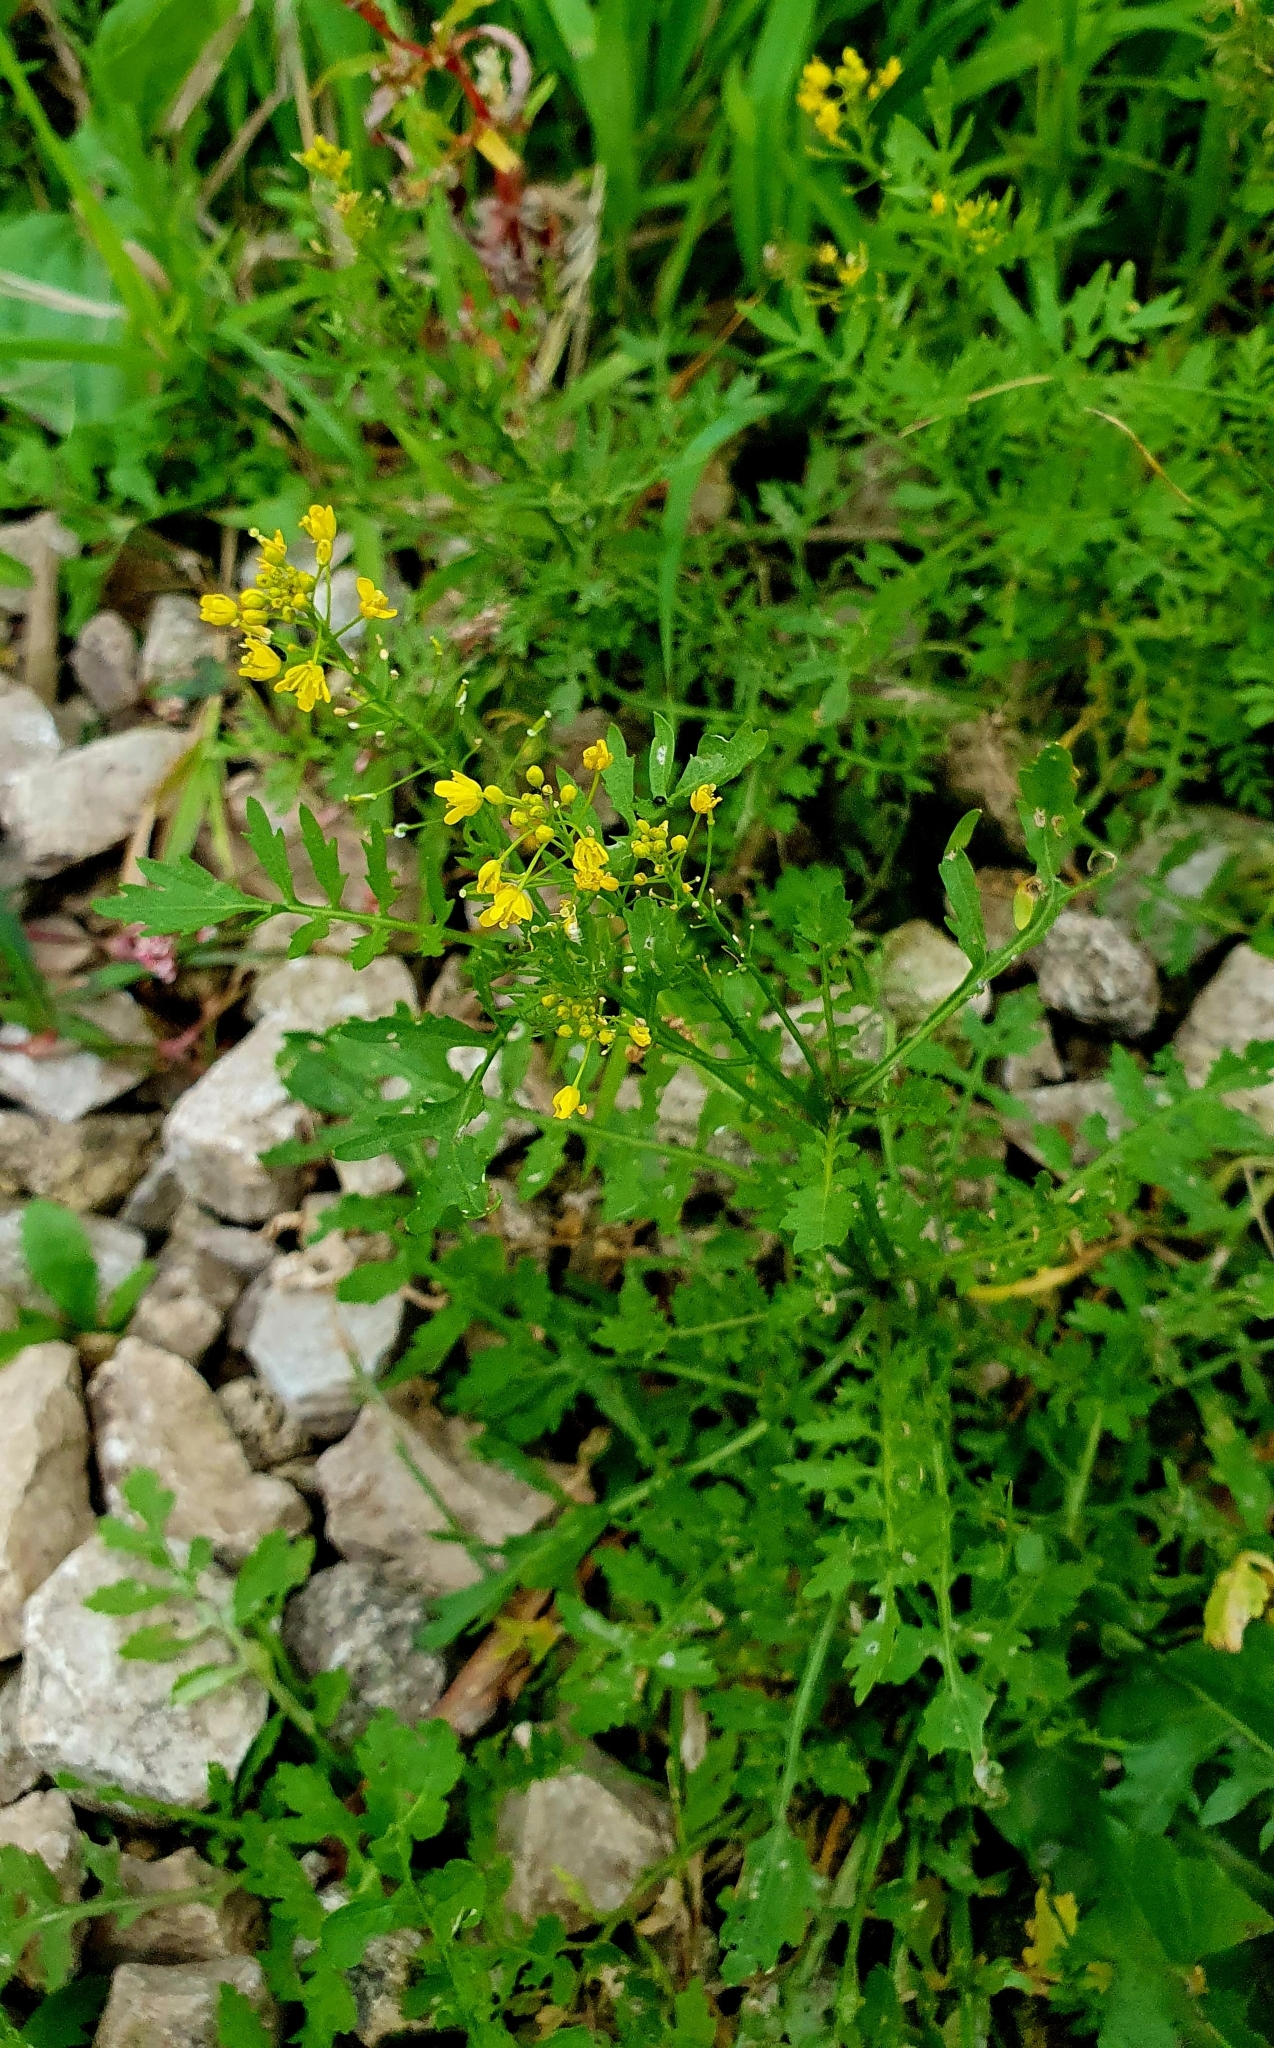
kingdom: Plantae
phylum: Tracheophyta
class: Magnoliopsida
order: Brassicales
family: Brassicaceae
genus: Rorippa
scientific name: Rorippa sylvestris
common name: Creeping yellowcress
